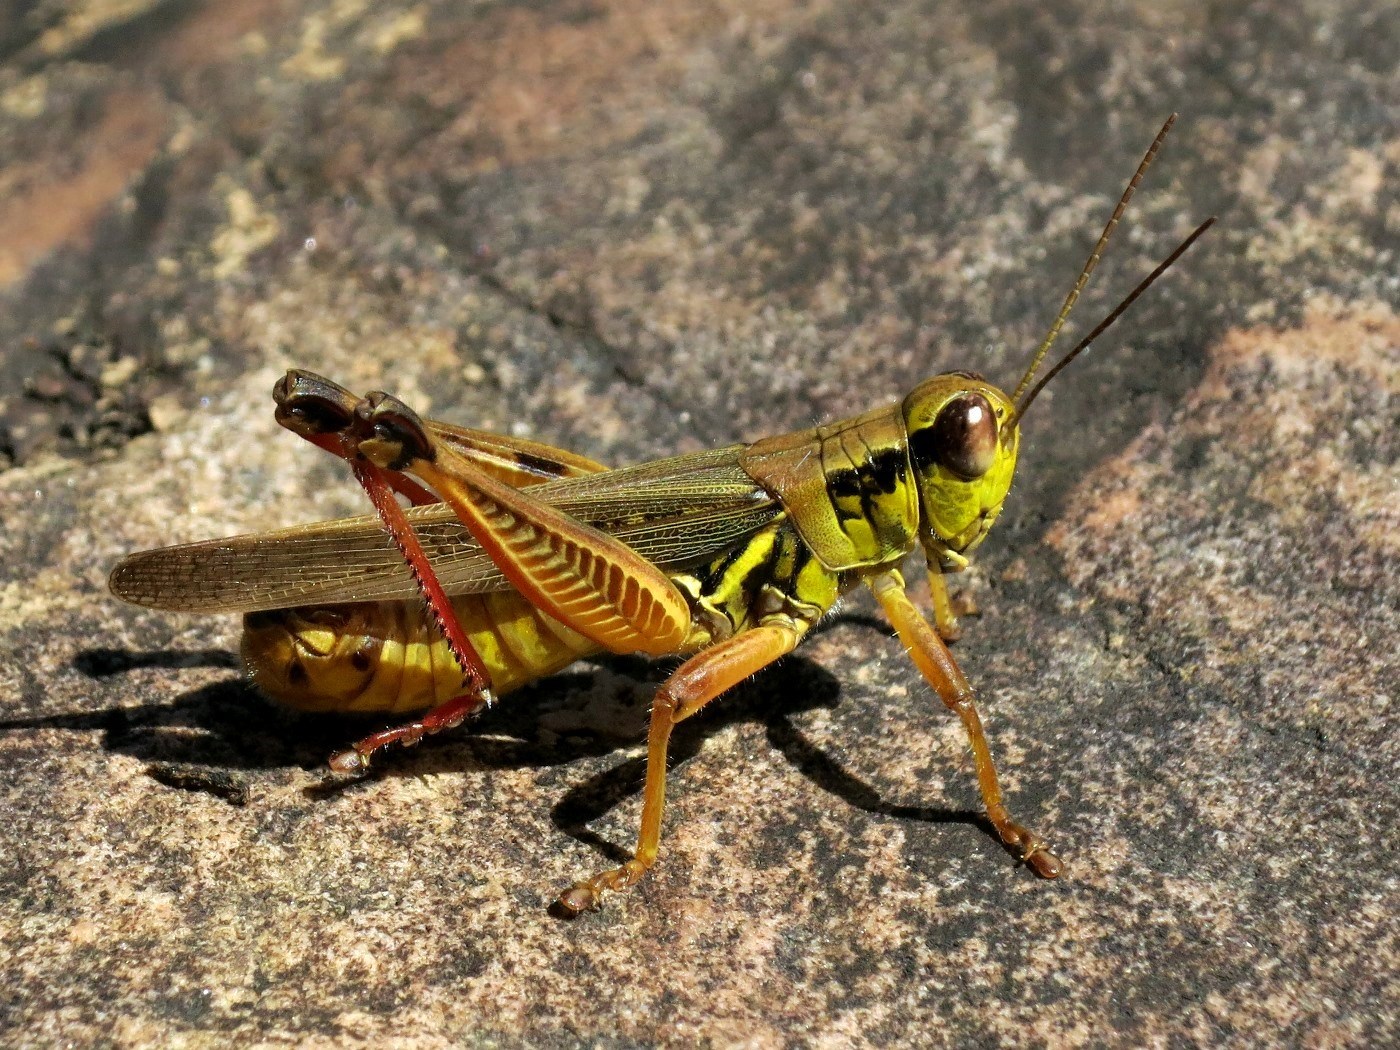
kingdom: Animalia
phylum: Arthropoda
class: Insecta
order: Orthoptera
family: Acrididae
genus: Melanoplus
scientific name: Melanoplus femurrubrum
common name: Red-legged grasshopper
